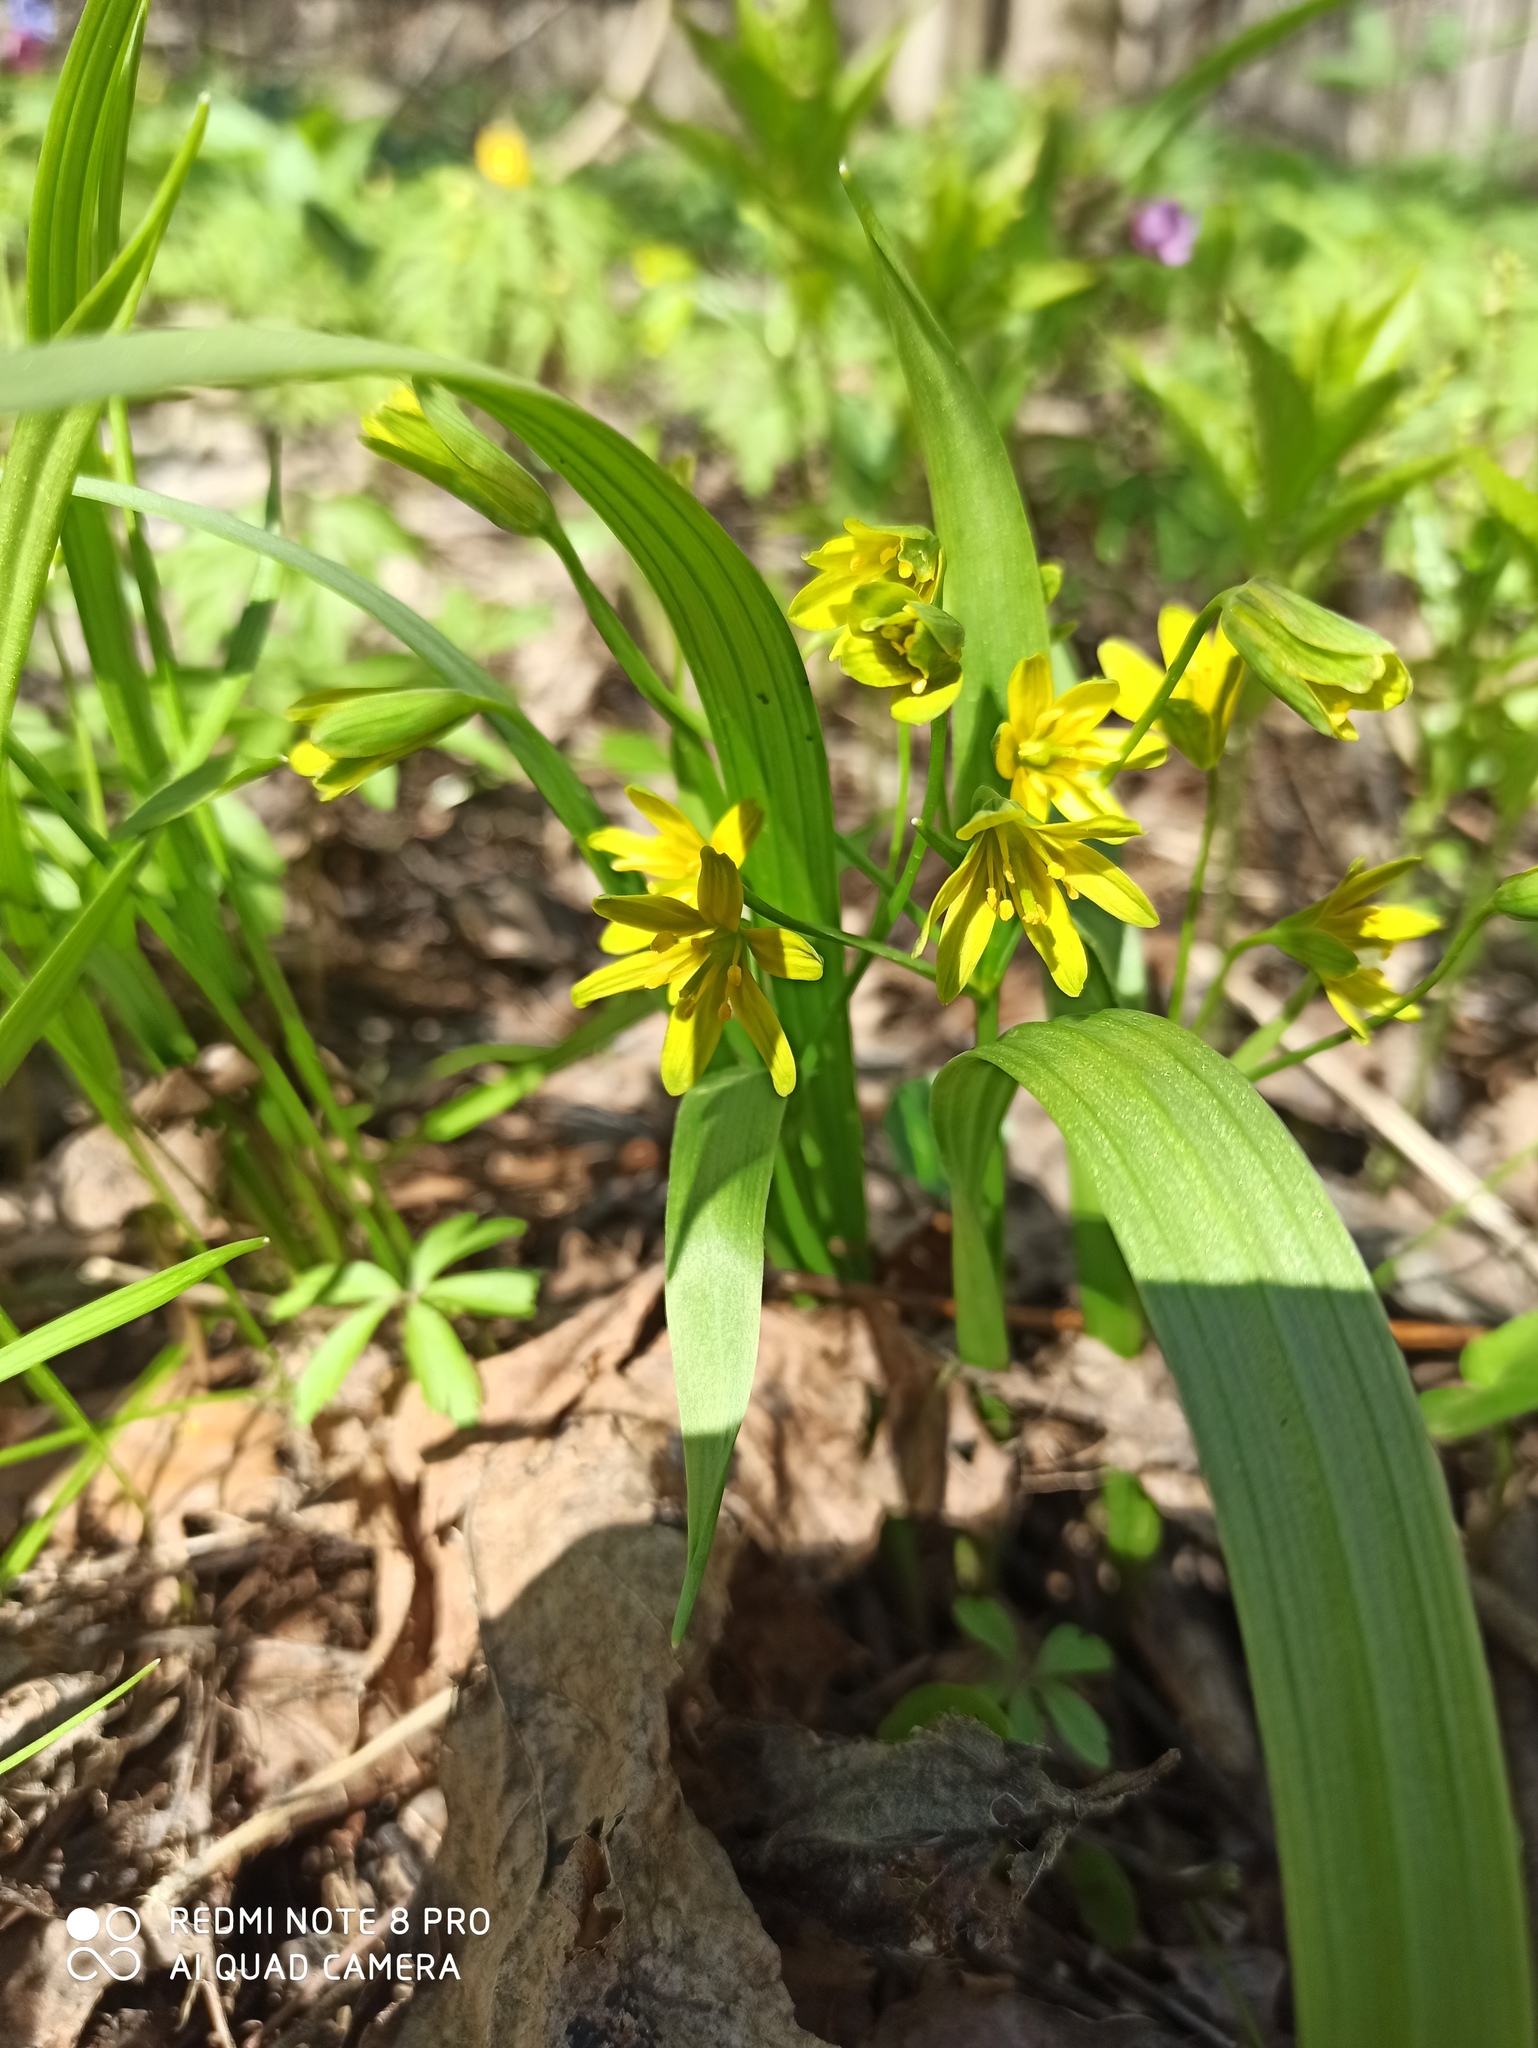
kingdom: Plantae
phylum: Tracheophyta
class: Liliopsida
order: Liliales
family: Liliaceae
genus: Gagea
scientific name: Gagea lutea
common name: Yellow star-of-bethlehem
